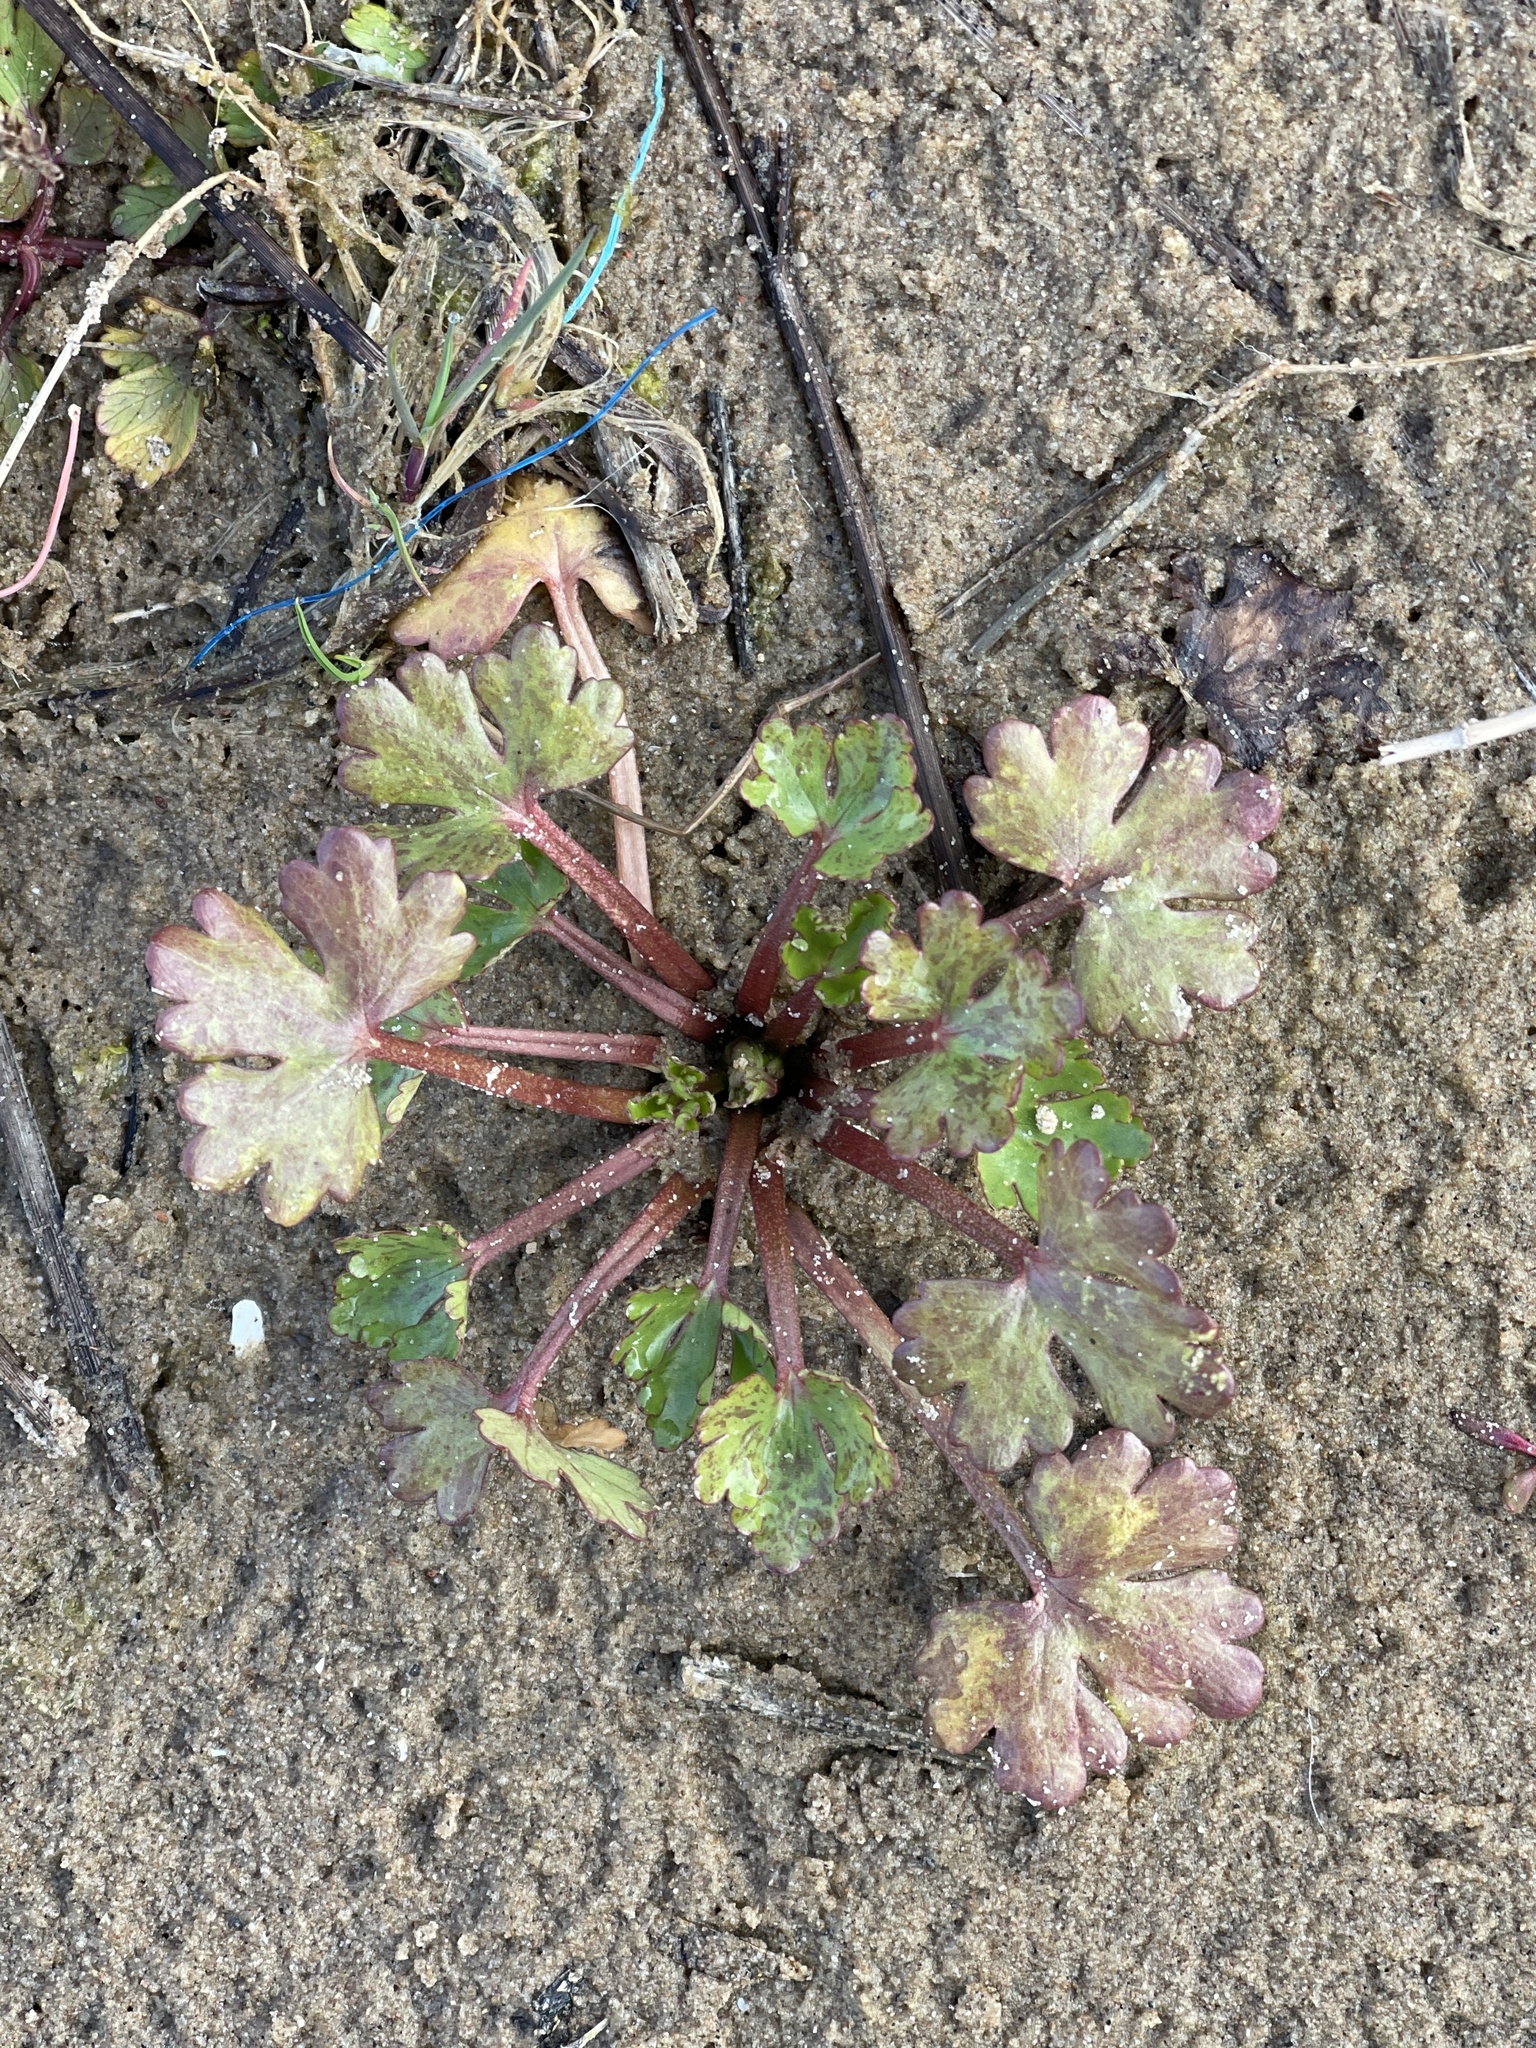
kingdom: Plantae
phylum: Tracheophyta
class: Magnoliopsida
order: Ranunculales
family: Ranunculaceae
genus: Ranunculus
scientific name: Ranunculus sceleratus
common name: Celery-leaved buttercup
